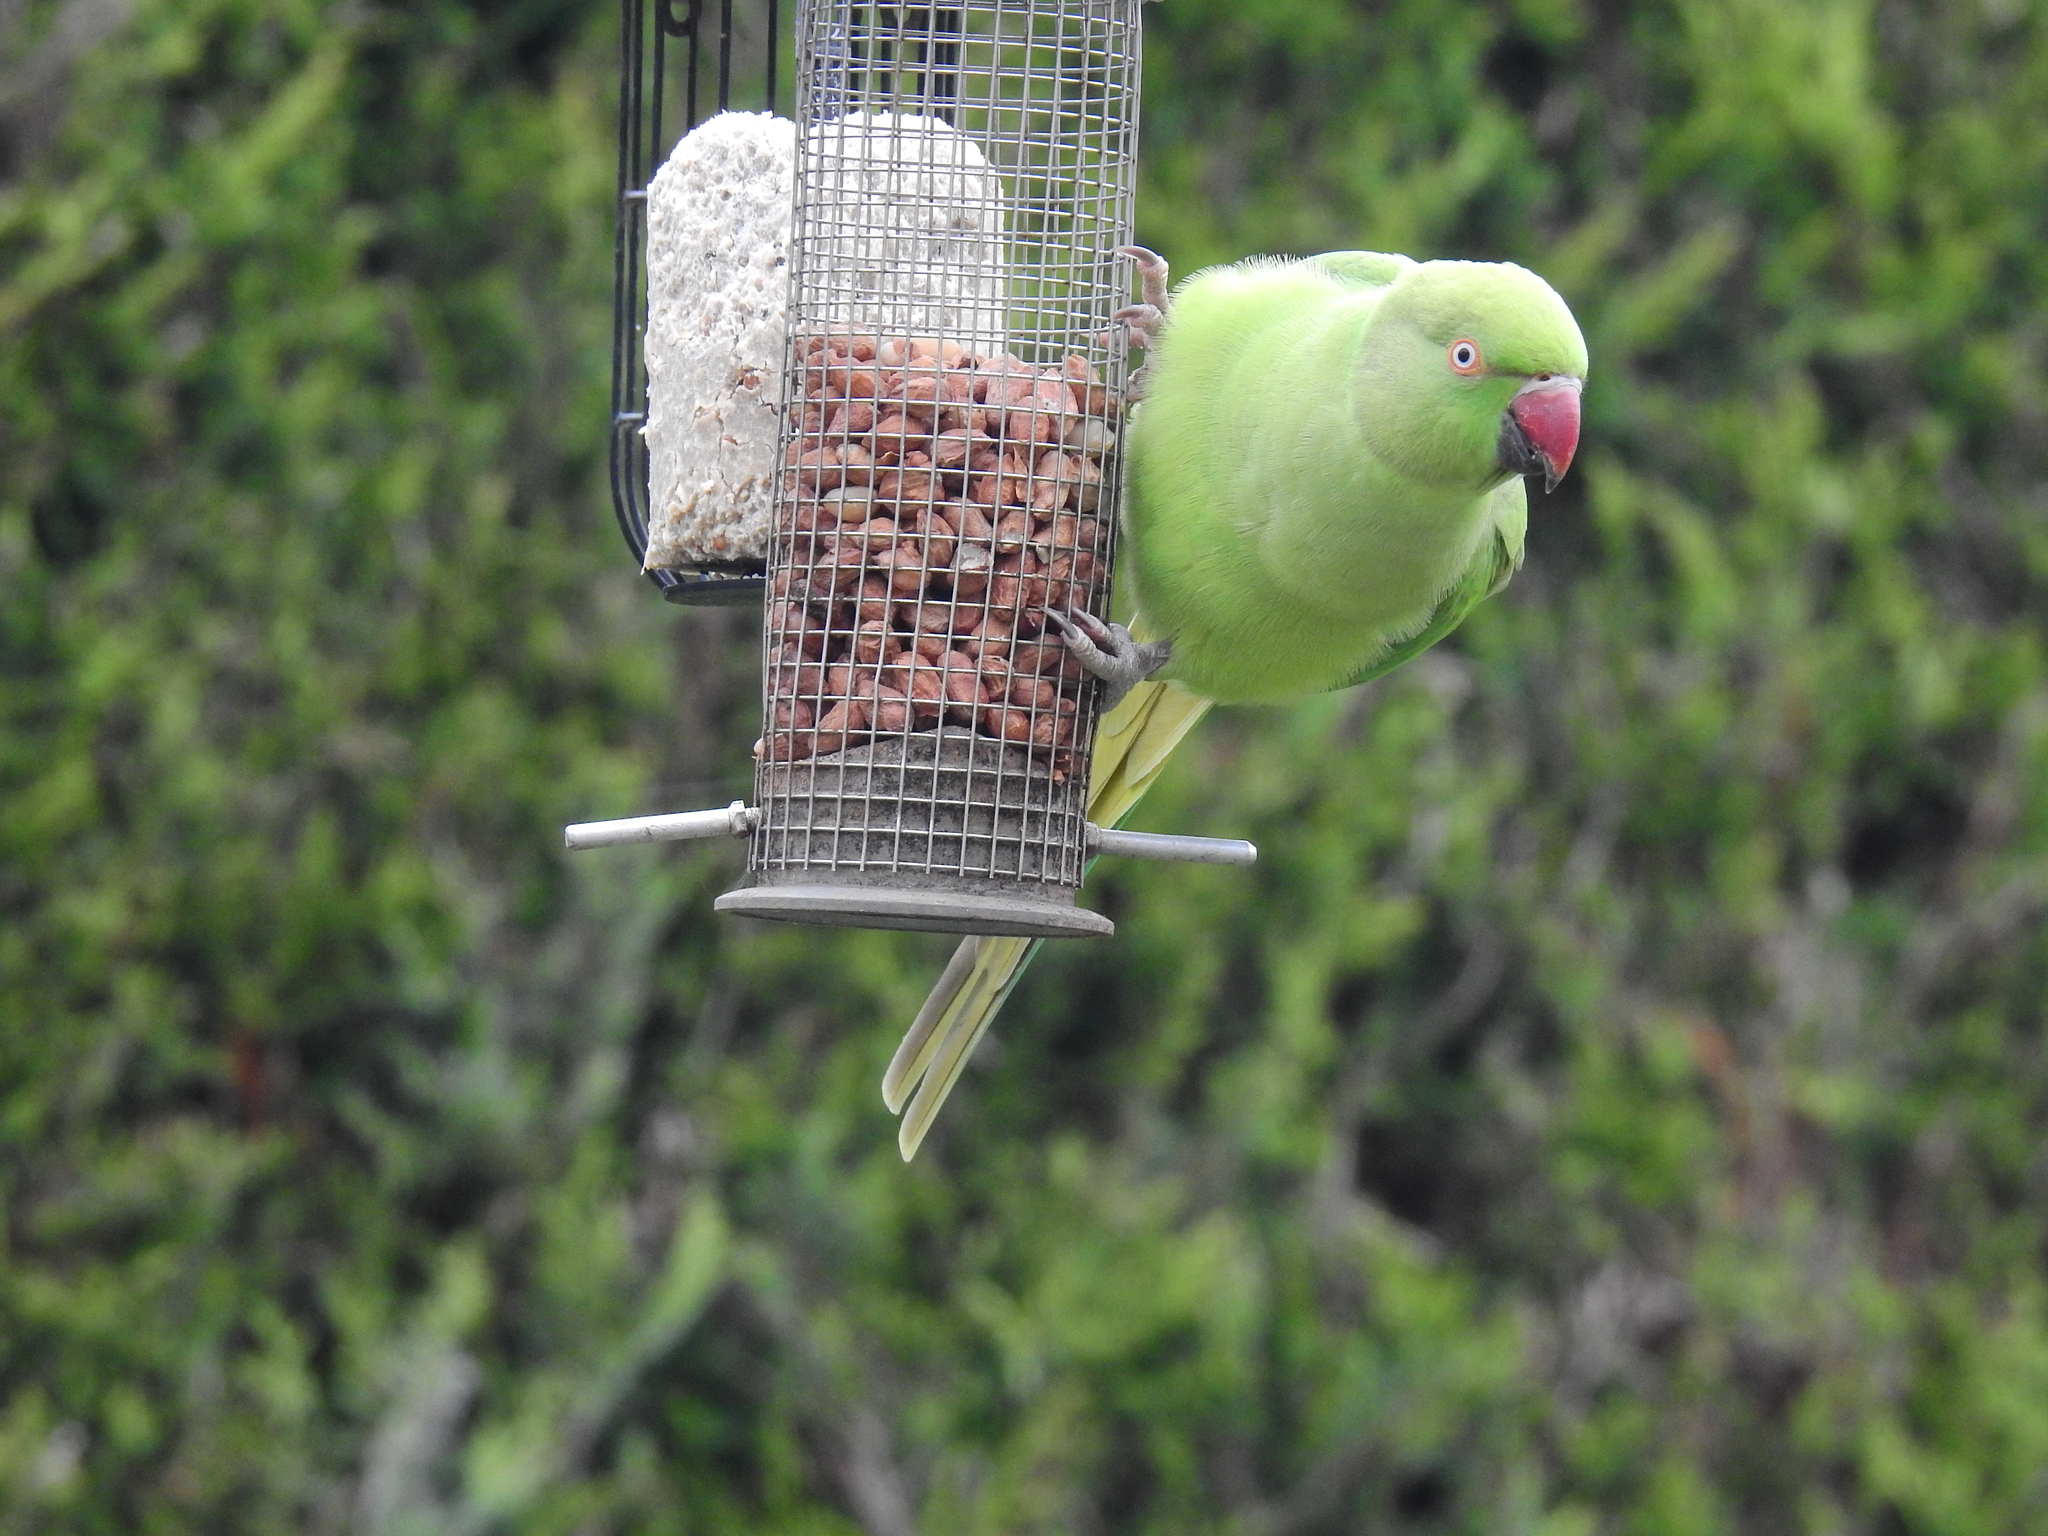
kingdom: Animalia
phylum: Chordata
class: Aves
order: Psittaciformes
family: Psittacidae
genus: Psittacula
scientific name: Psittacula krameri
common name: Rose-ringed parakeet
